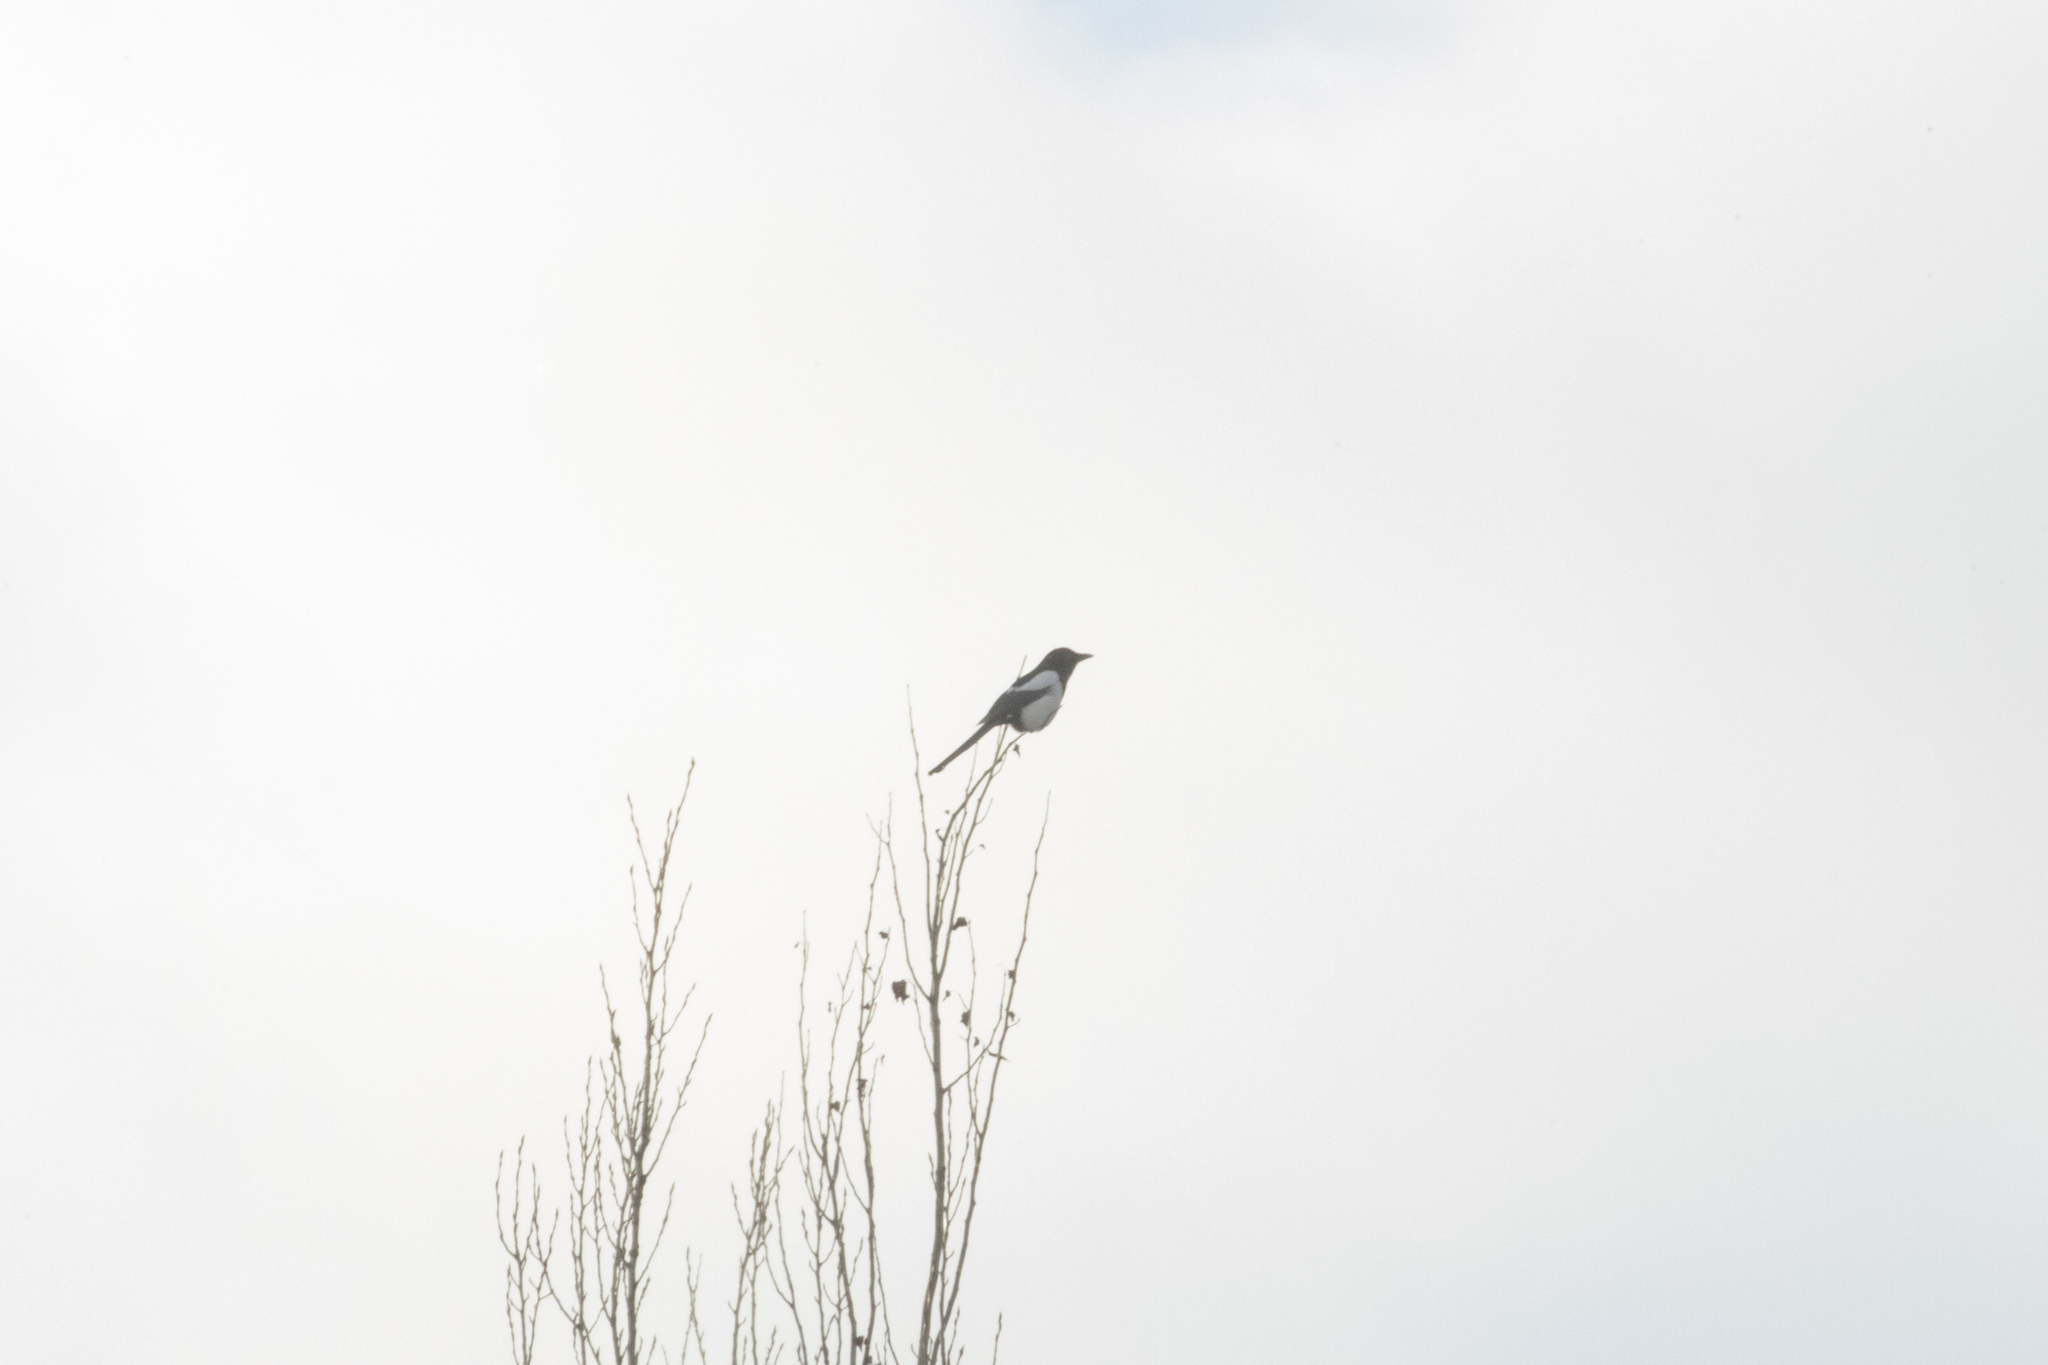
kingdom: Animalia
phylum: Chordata
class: Aves
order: Passeriformes
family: Corvidae
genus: Pica
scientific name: Pica pica
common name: Eurasian magpie
